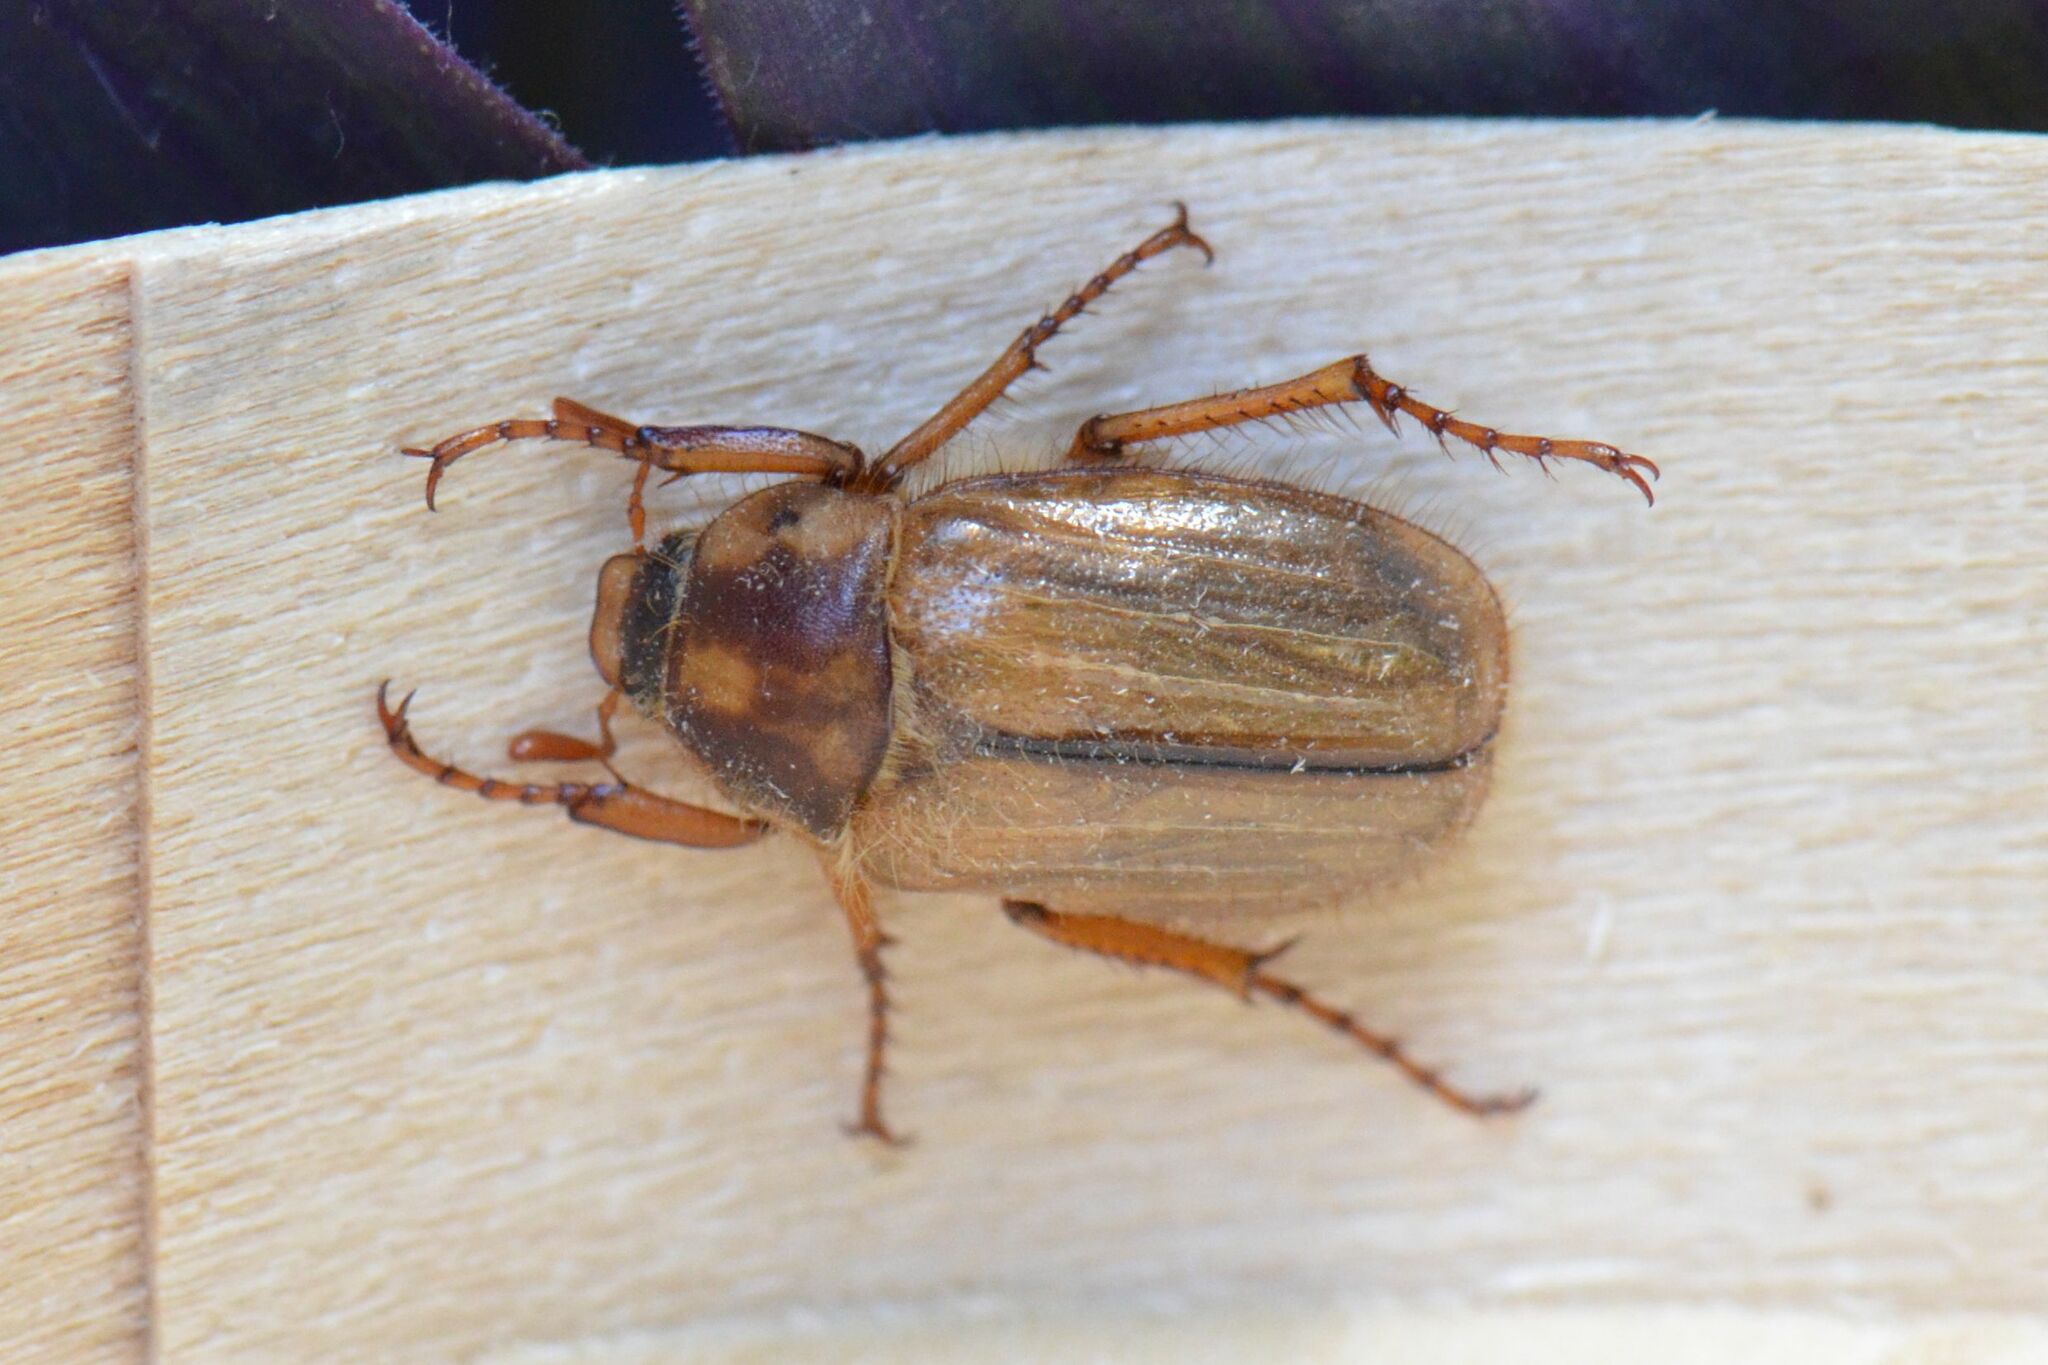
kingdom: Animalia
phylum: Arthropoda
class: Insecta
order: Coleoptera
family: Scarabaeidae
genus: Amphimallon
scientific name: Amphimallon solstitiale
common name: Summer chafer
